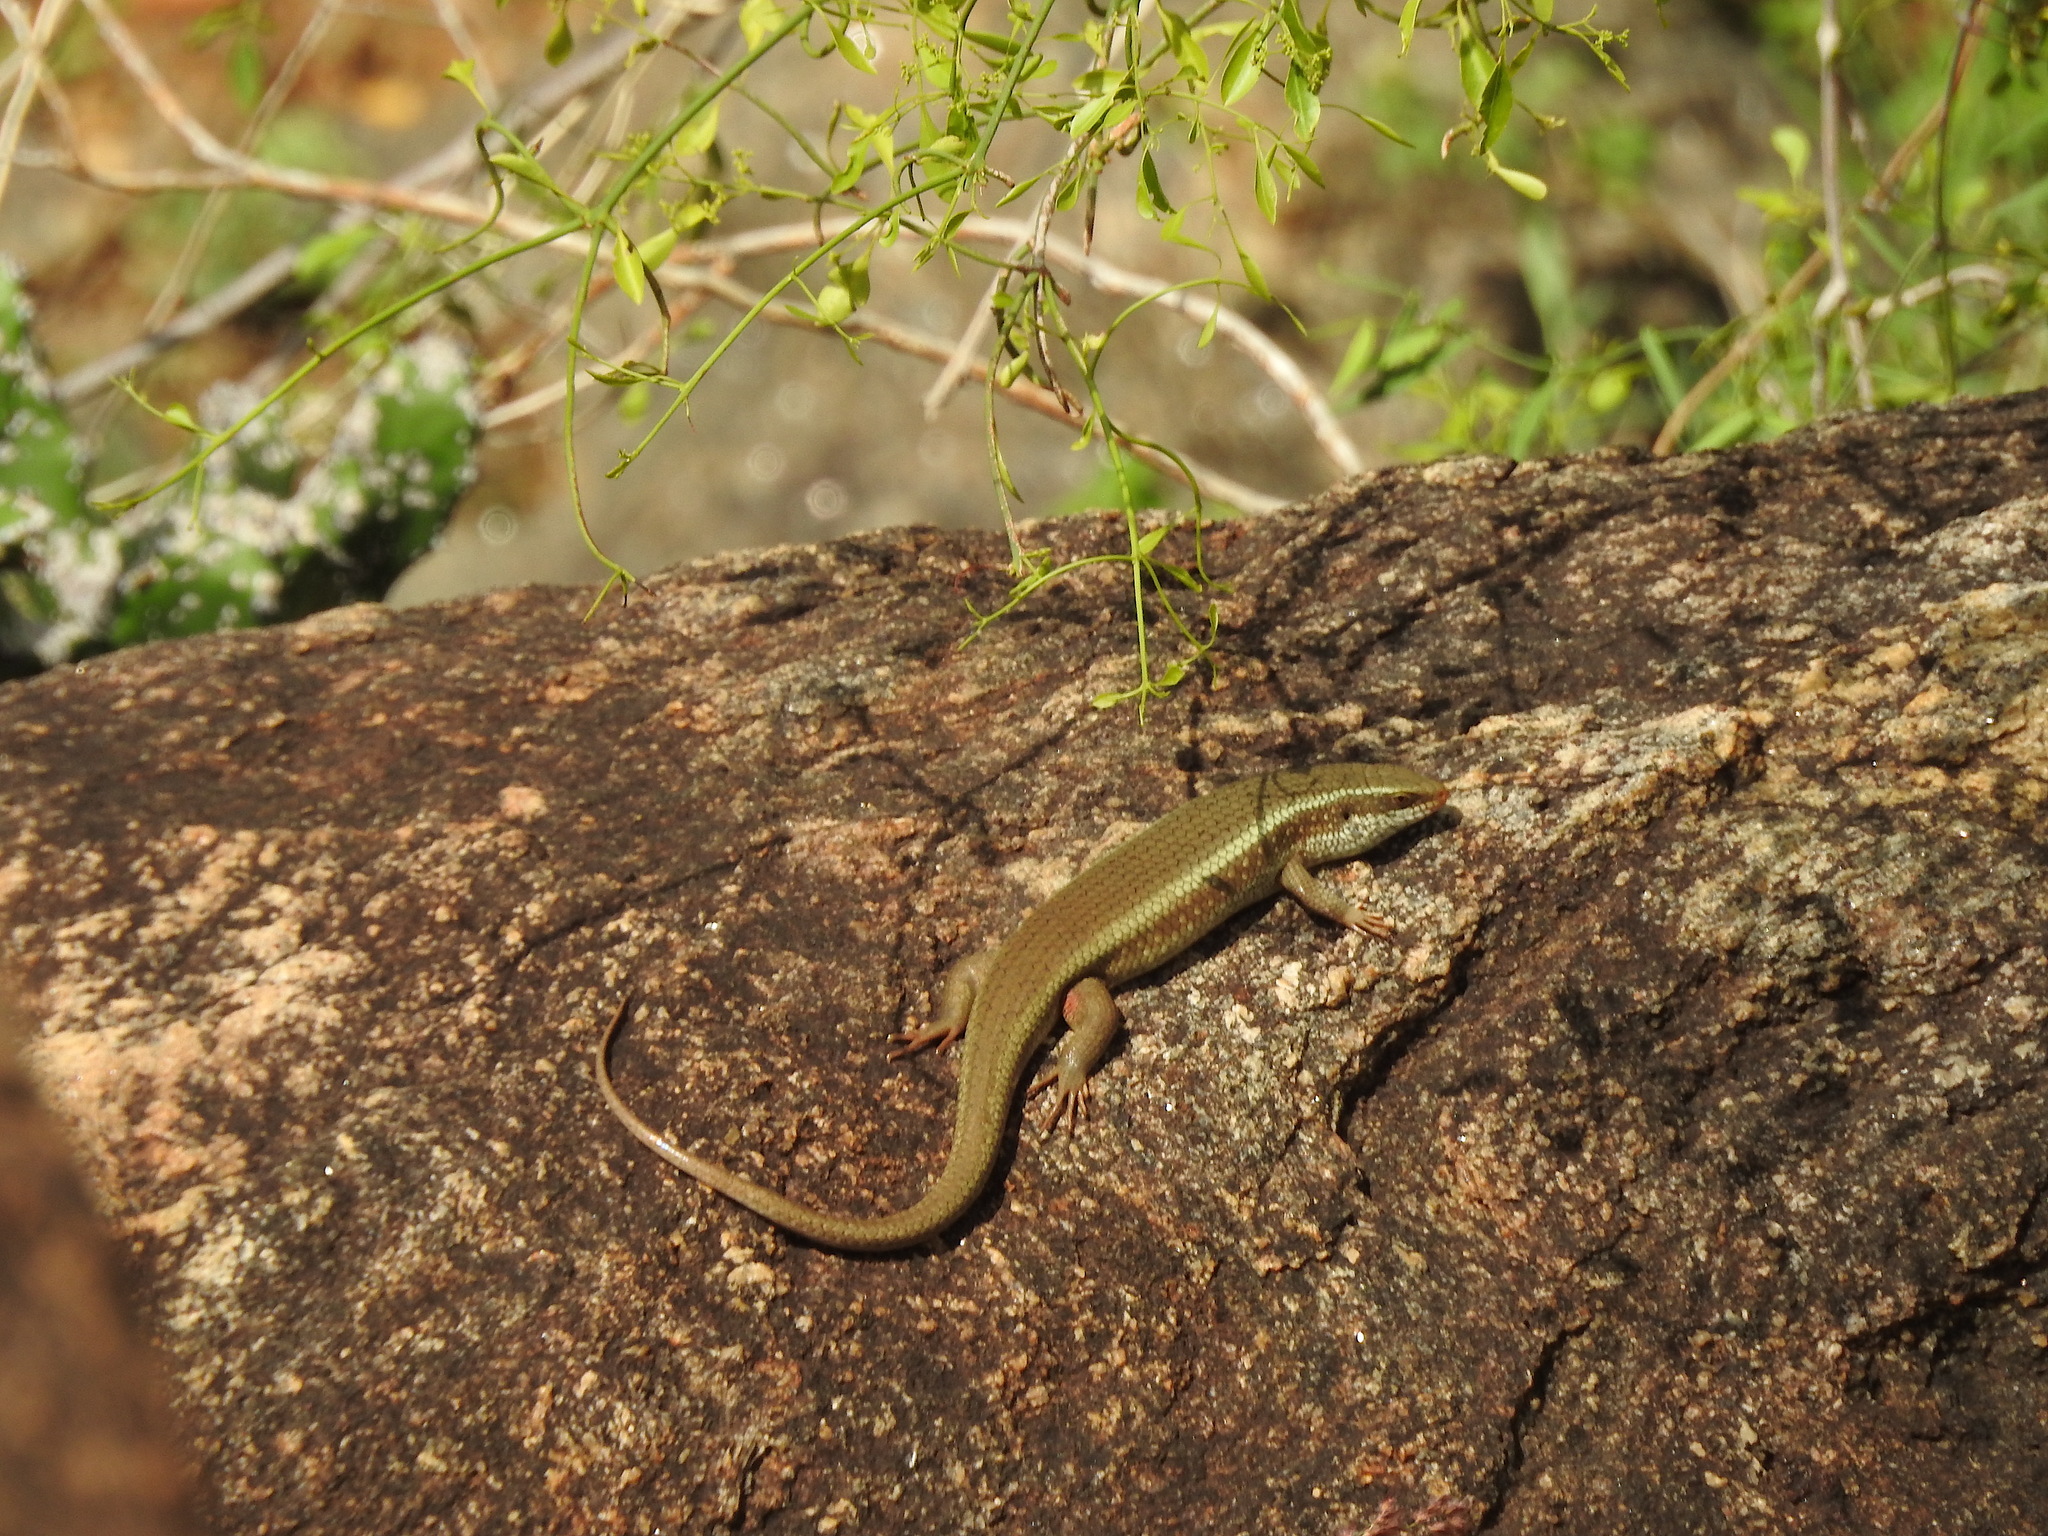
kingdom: Animalia
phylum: Chordata
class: Squamata
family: Scincidae
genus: Eutropis
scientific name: Eutropis carinata
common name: Keeled indian mabuya
